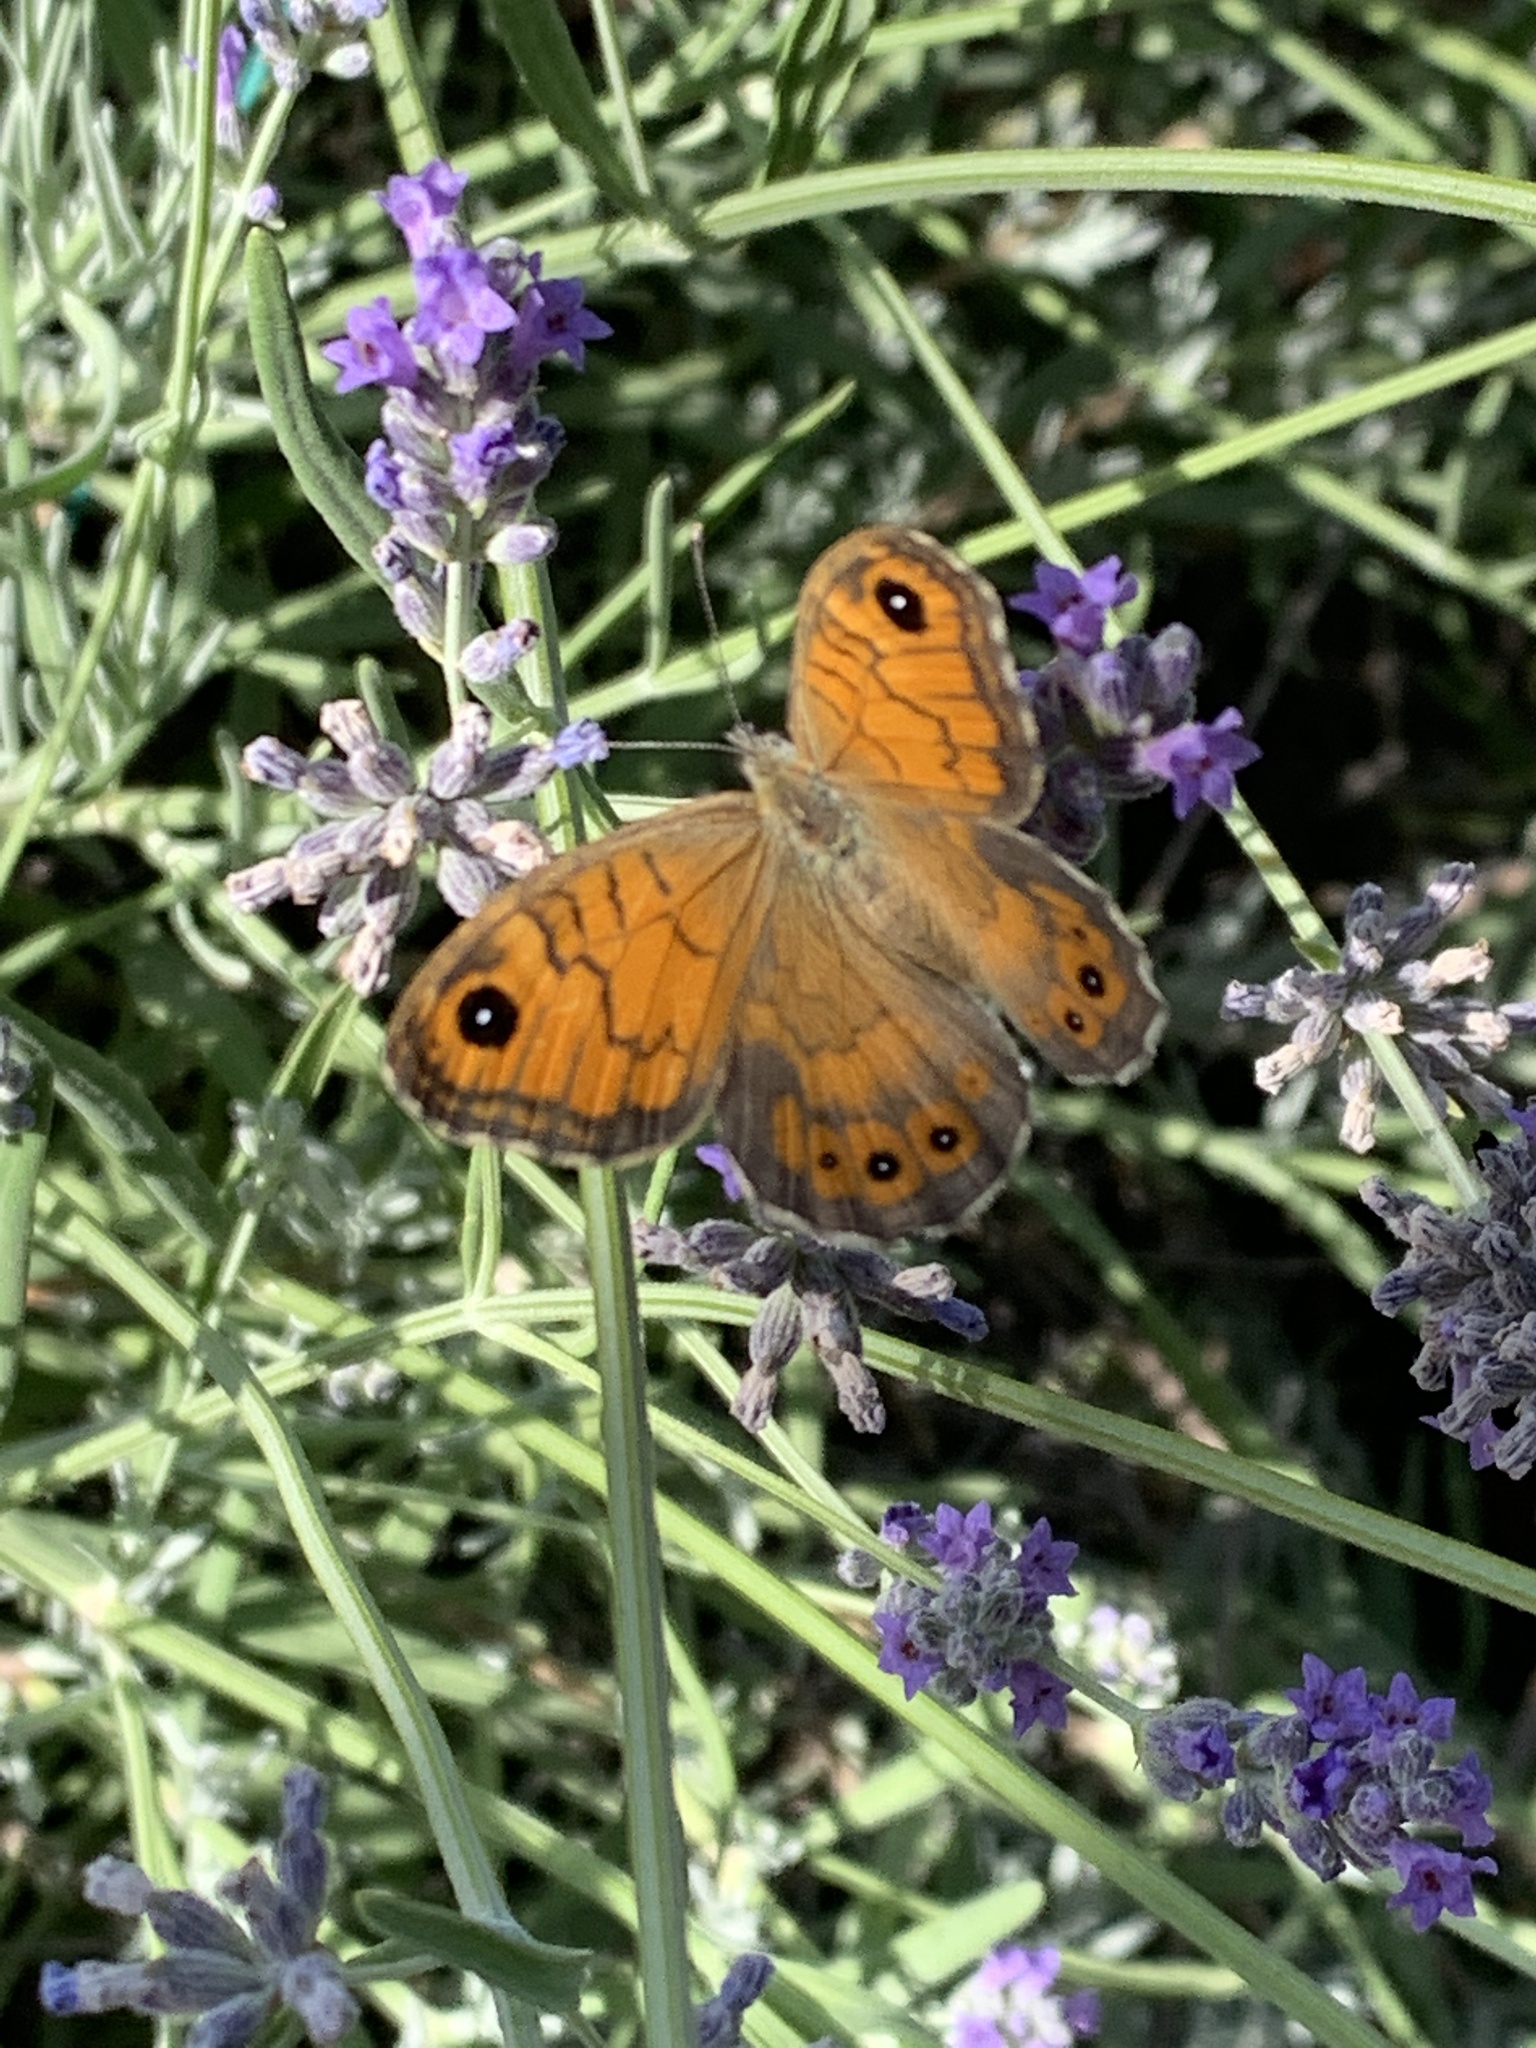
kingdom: Animalia
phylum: Arthropoda
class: Insecta
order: Lepidoptera
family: Nymphalidae
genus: Pararge
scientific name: Pararge Lasiommata megera
